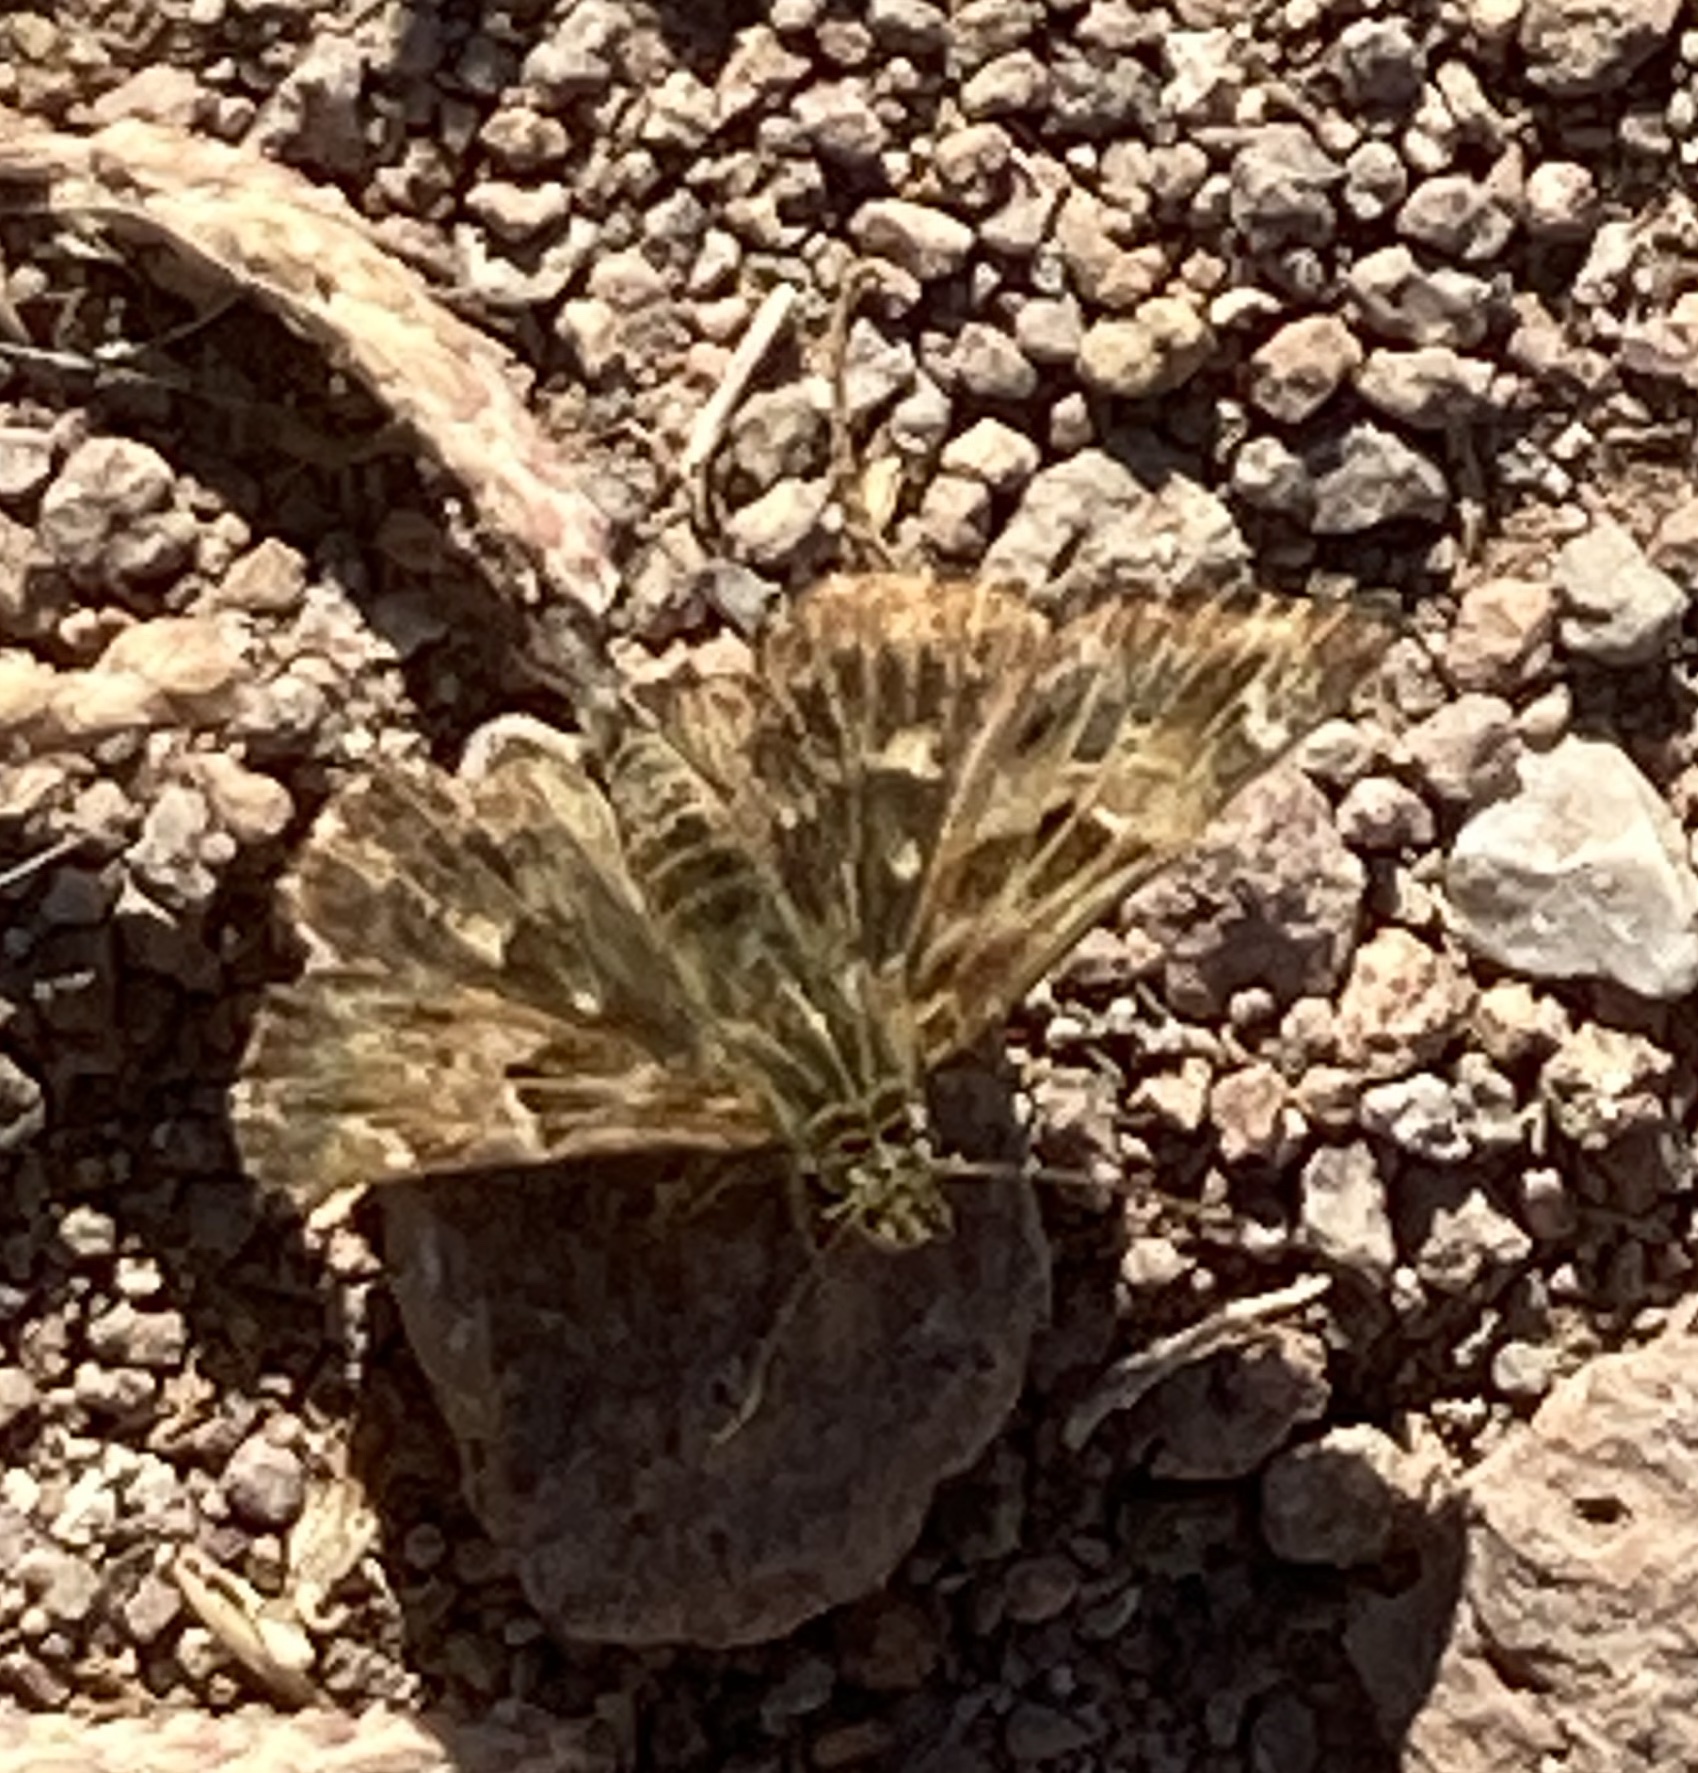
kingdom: Animalia
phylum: Arthropoda
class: Insecta
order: Lepidoptera
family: Hesperiidae
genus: Carcharodus
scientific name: Carcharodus alceae
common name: Mallow skipper
